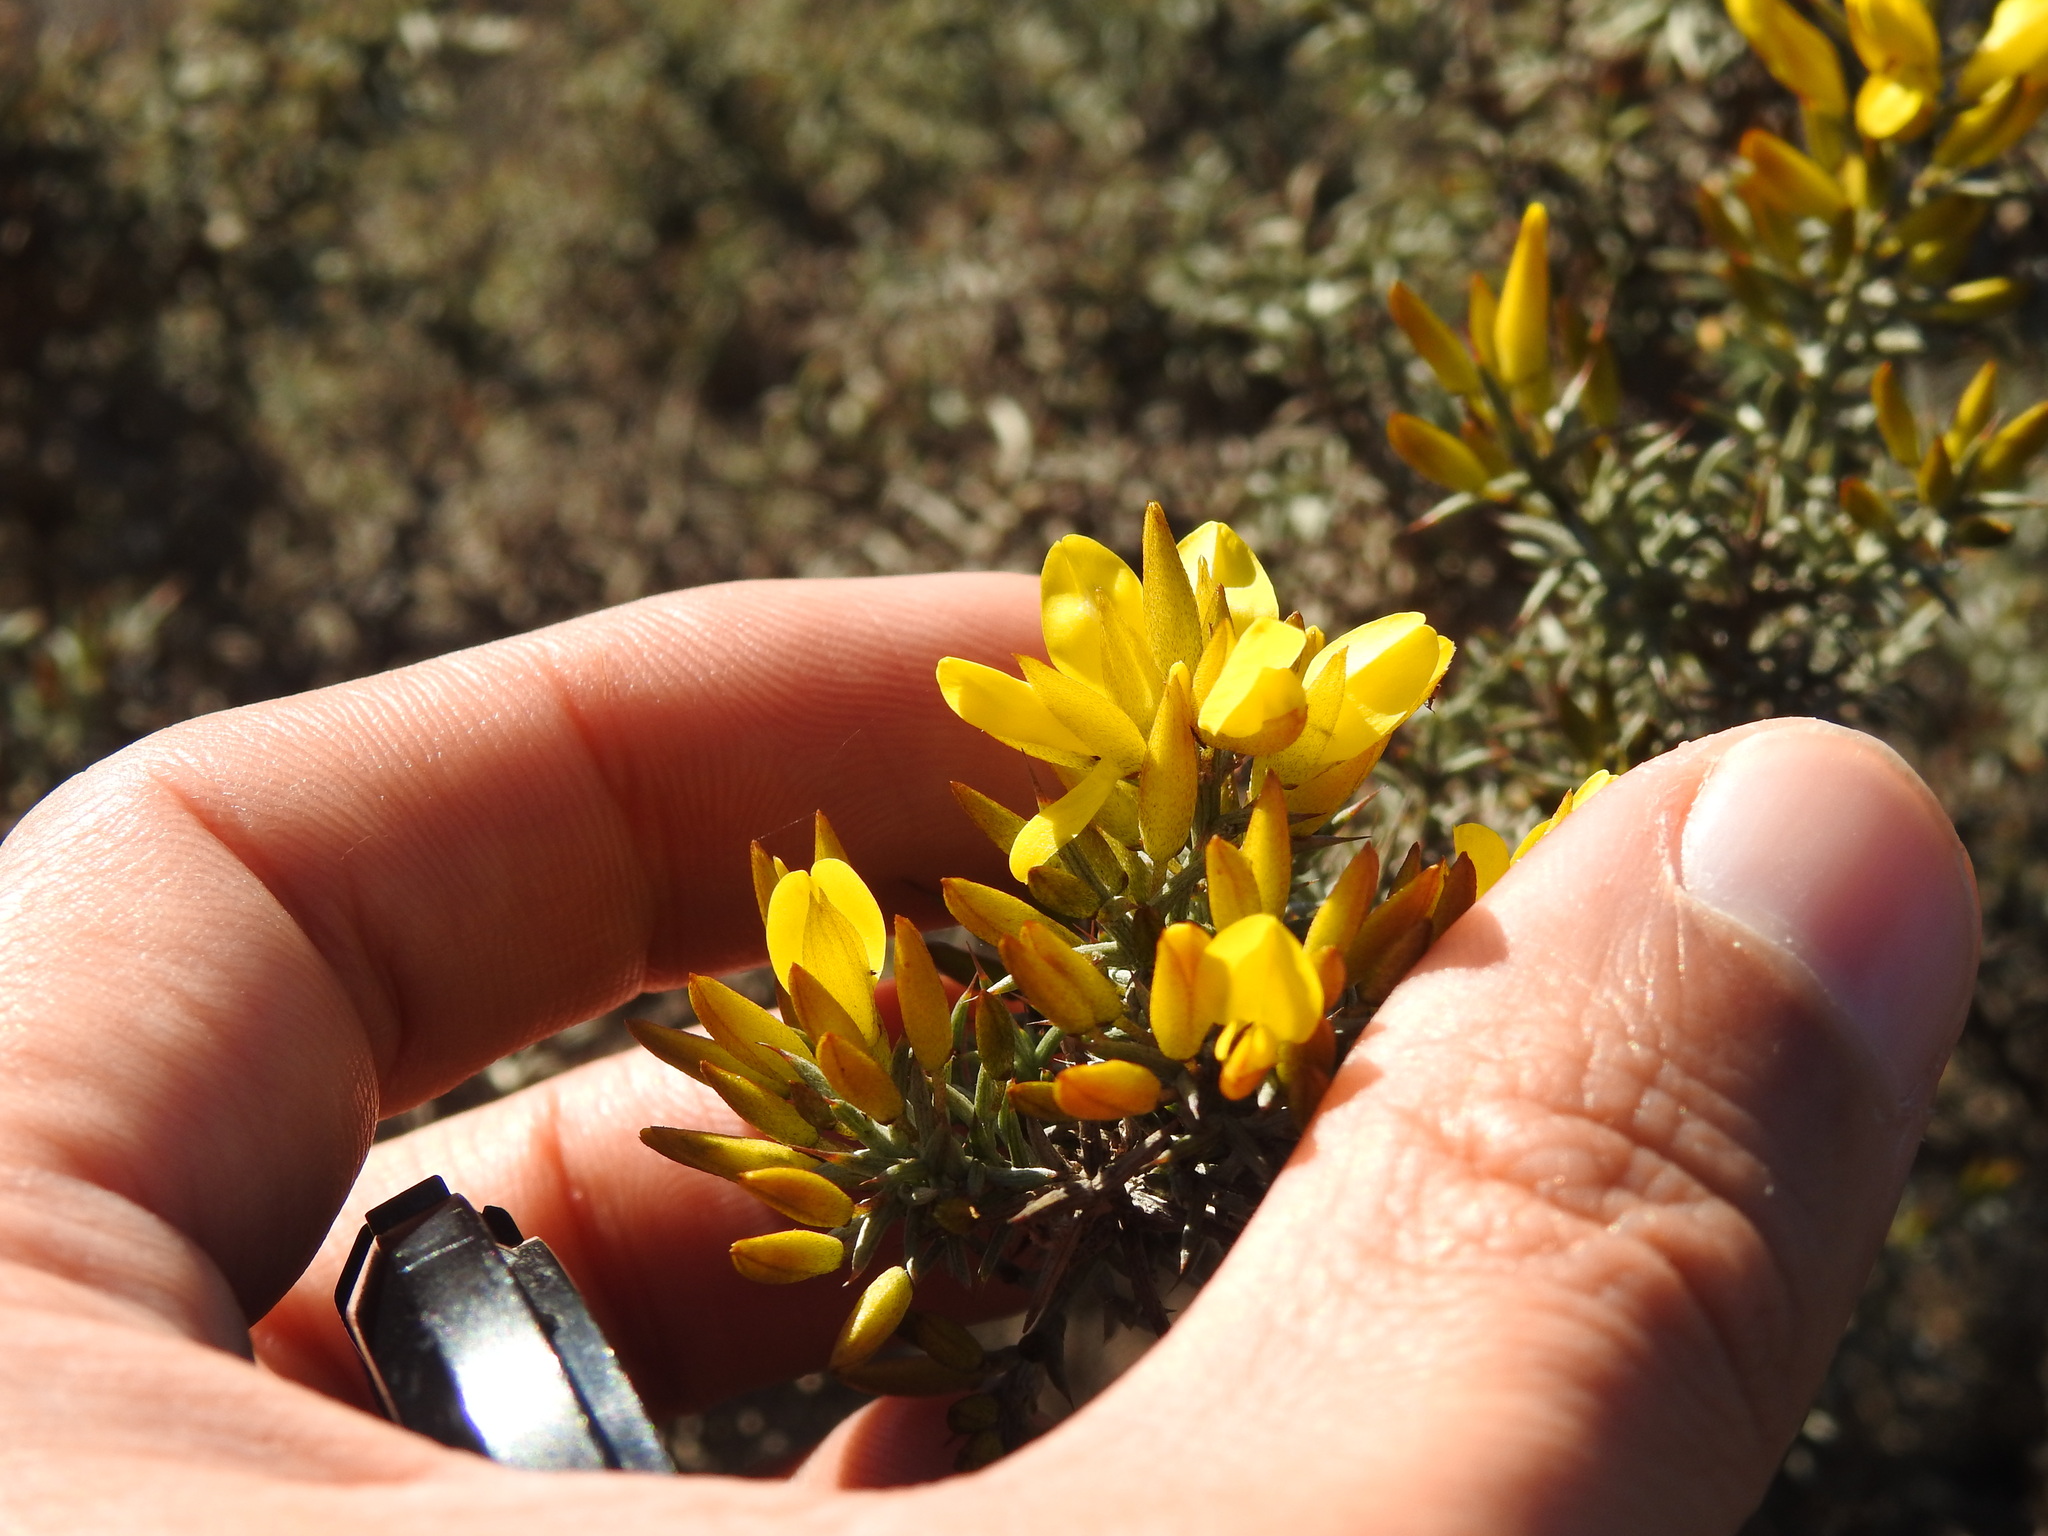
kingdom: Plantae
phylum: Tracheophyta
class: Magnoliopsida
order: Fabales
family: Fabaceae
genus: Ulex
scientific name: Ulex argenteus
